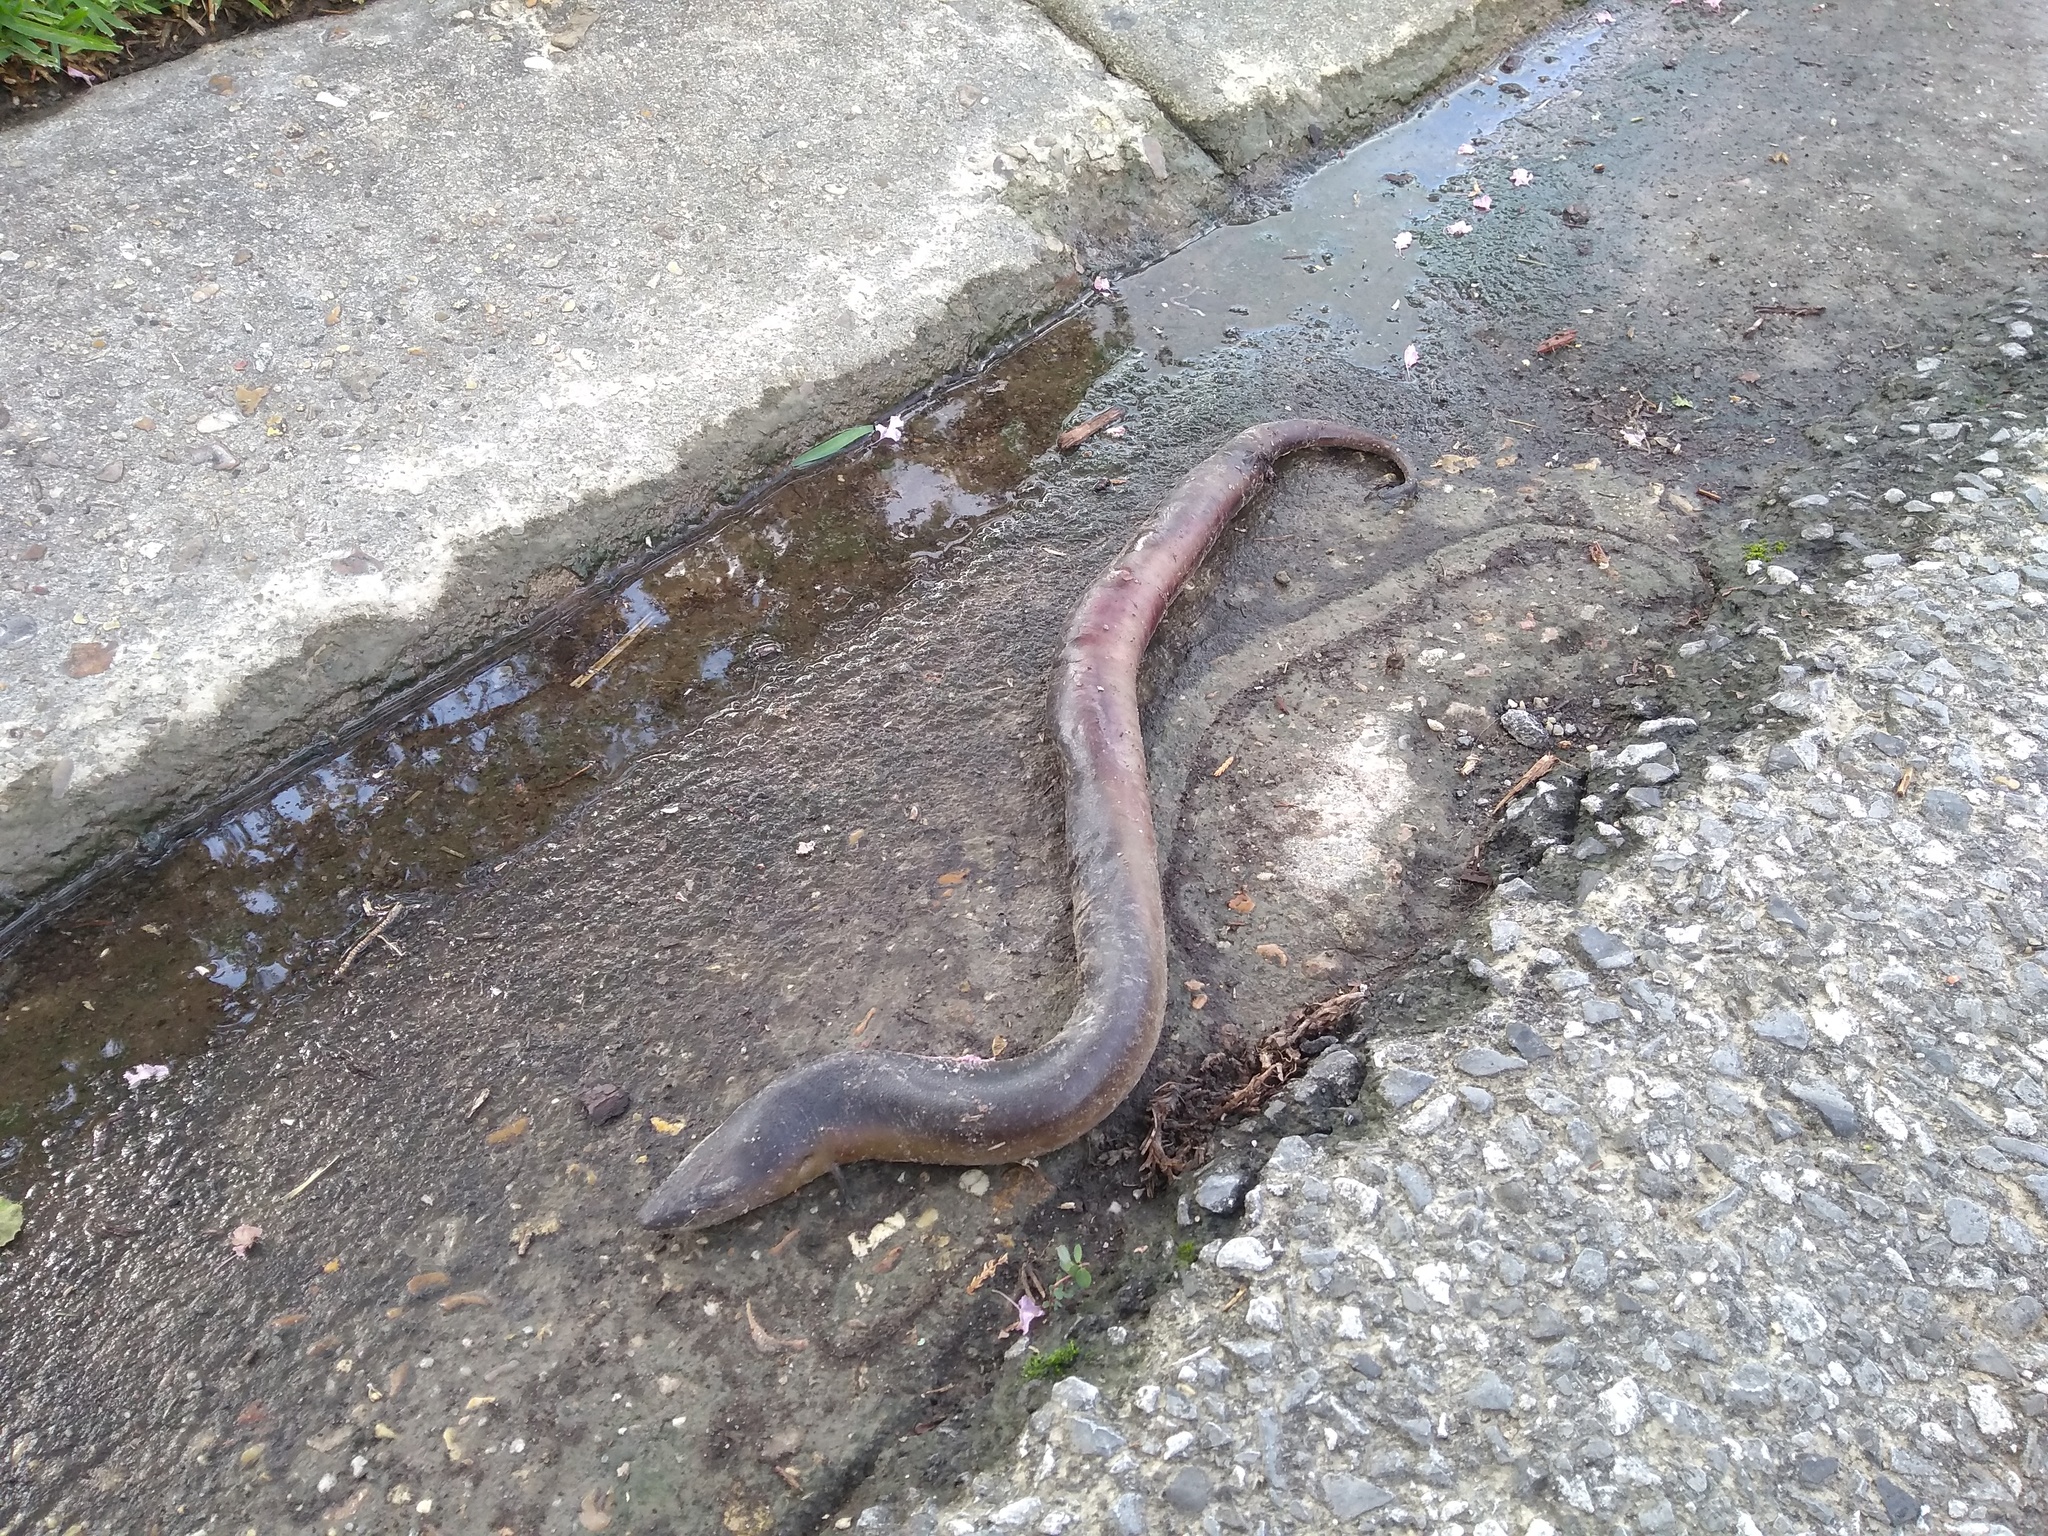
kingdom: Animalia
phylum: Chordata
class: Amphibia
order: Caudata
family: Amphiumidae
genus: Amphiuma
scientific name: Amphiuma tridactylum
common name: Three-toed amphiuma
